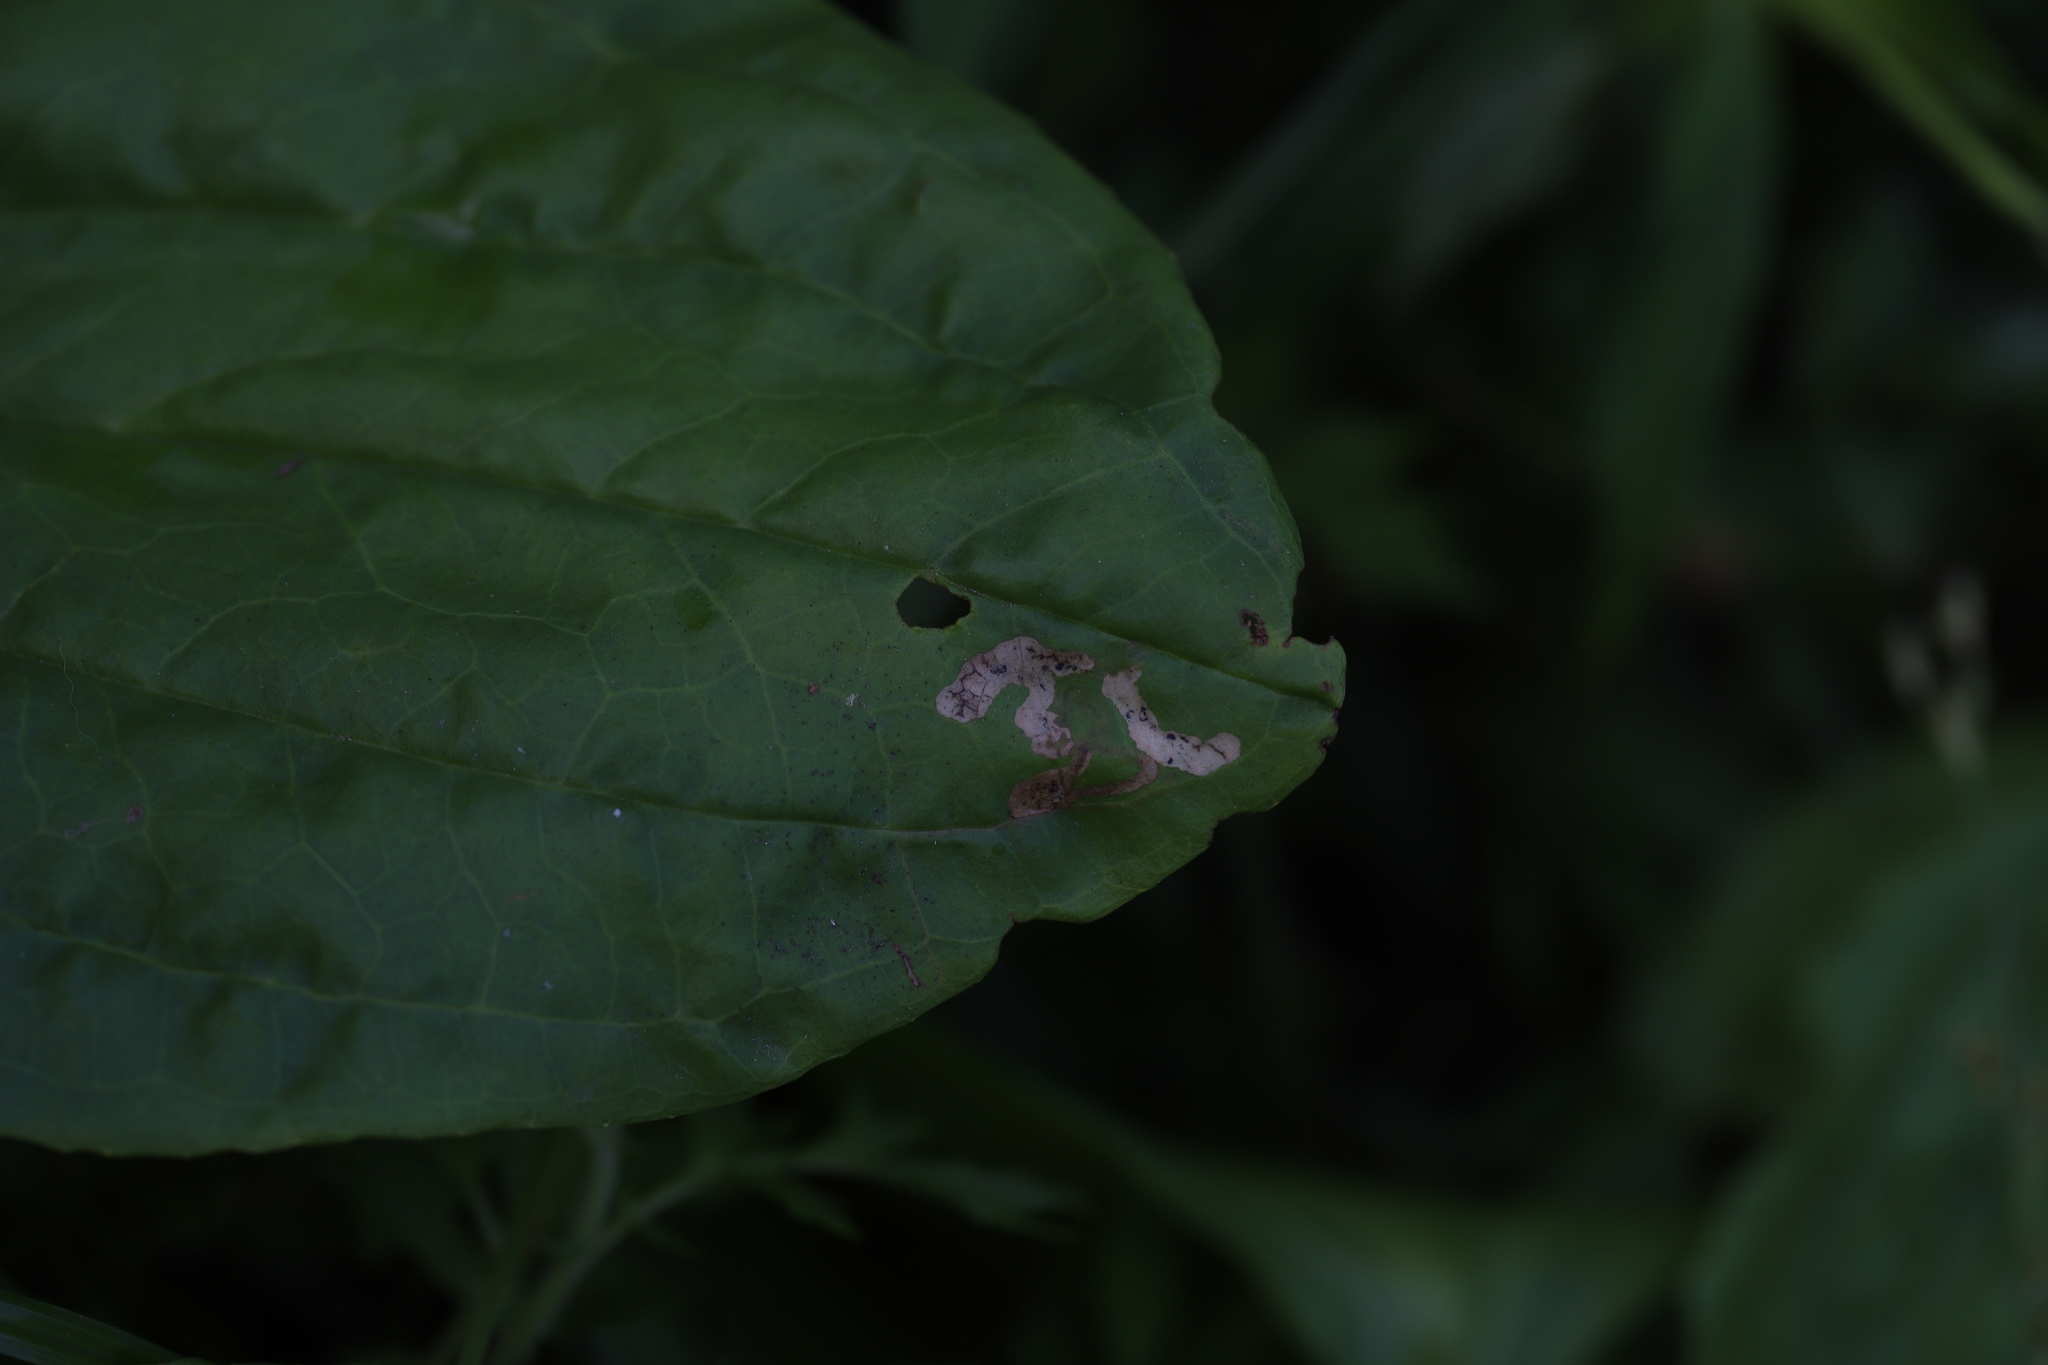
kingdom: Animalia
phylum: Arthropoda
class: Insecta
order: Diptera
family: Agromyzidae
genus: Liriomyza
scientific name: Liriomyza blechi
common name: Agromyzid fly
